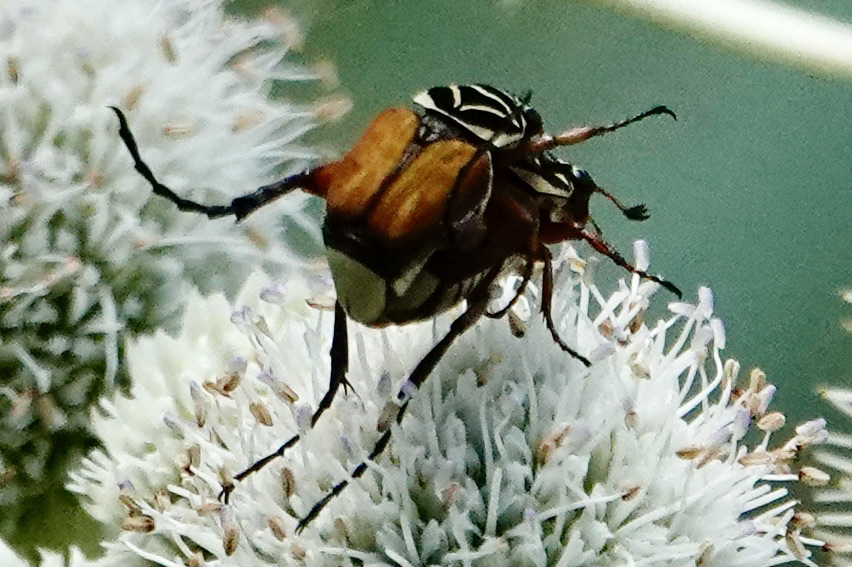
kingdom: Animalia
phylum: Arthropoda
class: Insecta
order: Coleoptera
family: Scarabaeidae
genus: Trigonopeltastes
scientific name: Trigonopeltastes delta
